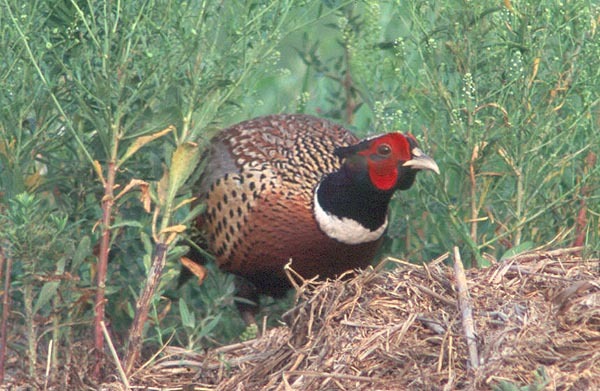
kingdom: Animalia
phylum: Chordata
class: Aves
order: Galliformes
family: Phasianidae
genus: Phasianus
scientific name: Phasianus colchicus
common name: Common pheasant
